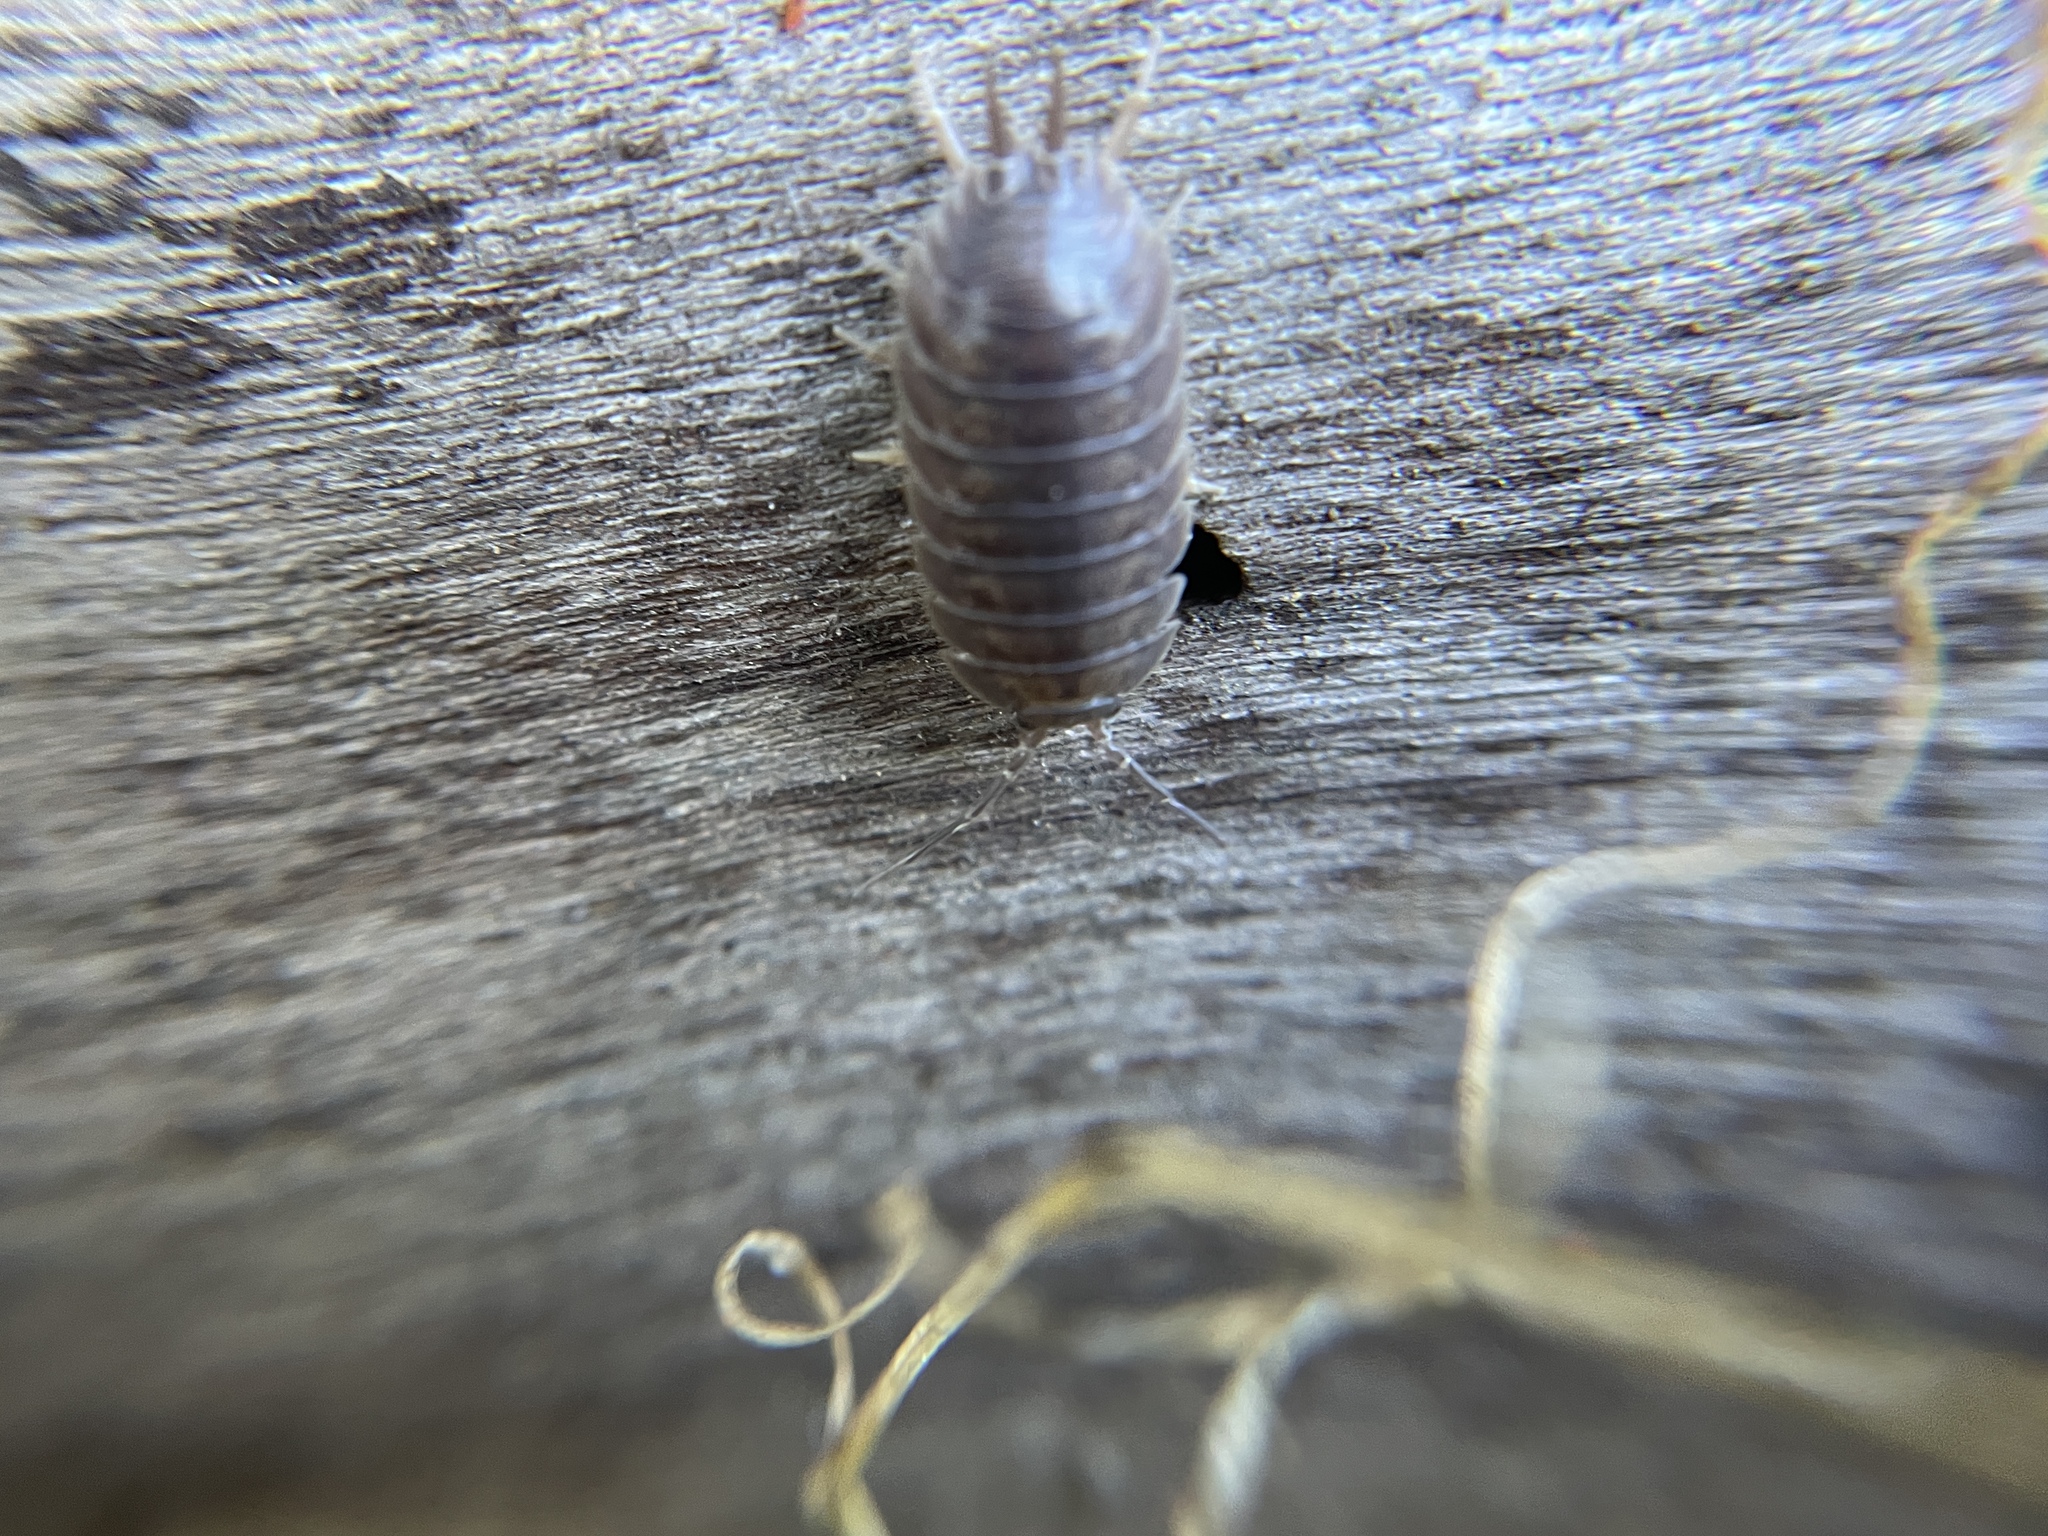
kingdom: Animalia
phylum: Arthropoda
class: Malacostraca
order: Isopoda
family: Porcellionidae
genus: Porcellio
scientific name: Porcellio laevis
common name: Swift woodlouse
